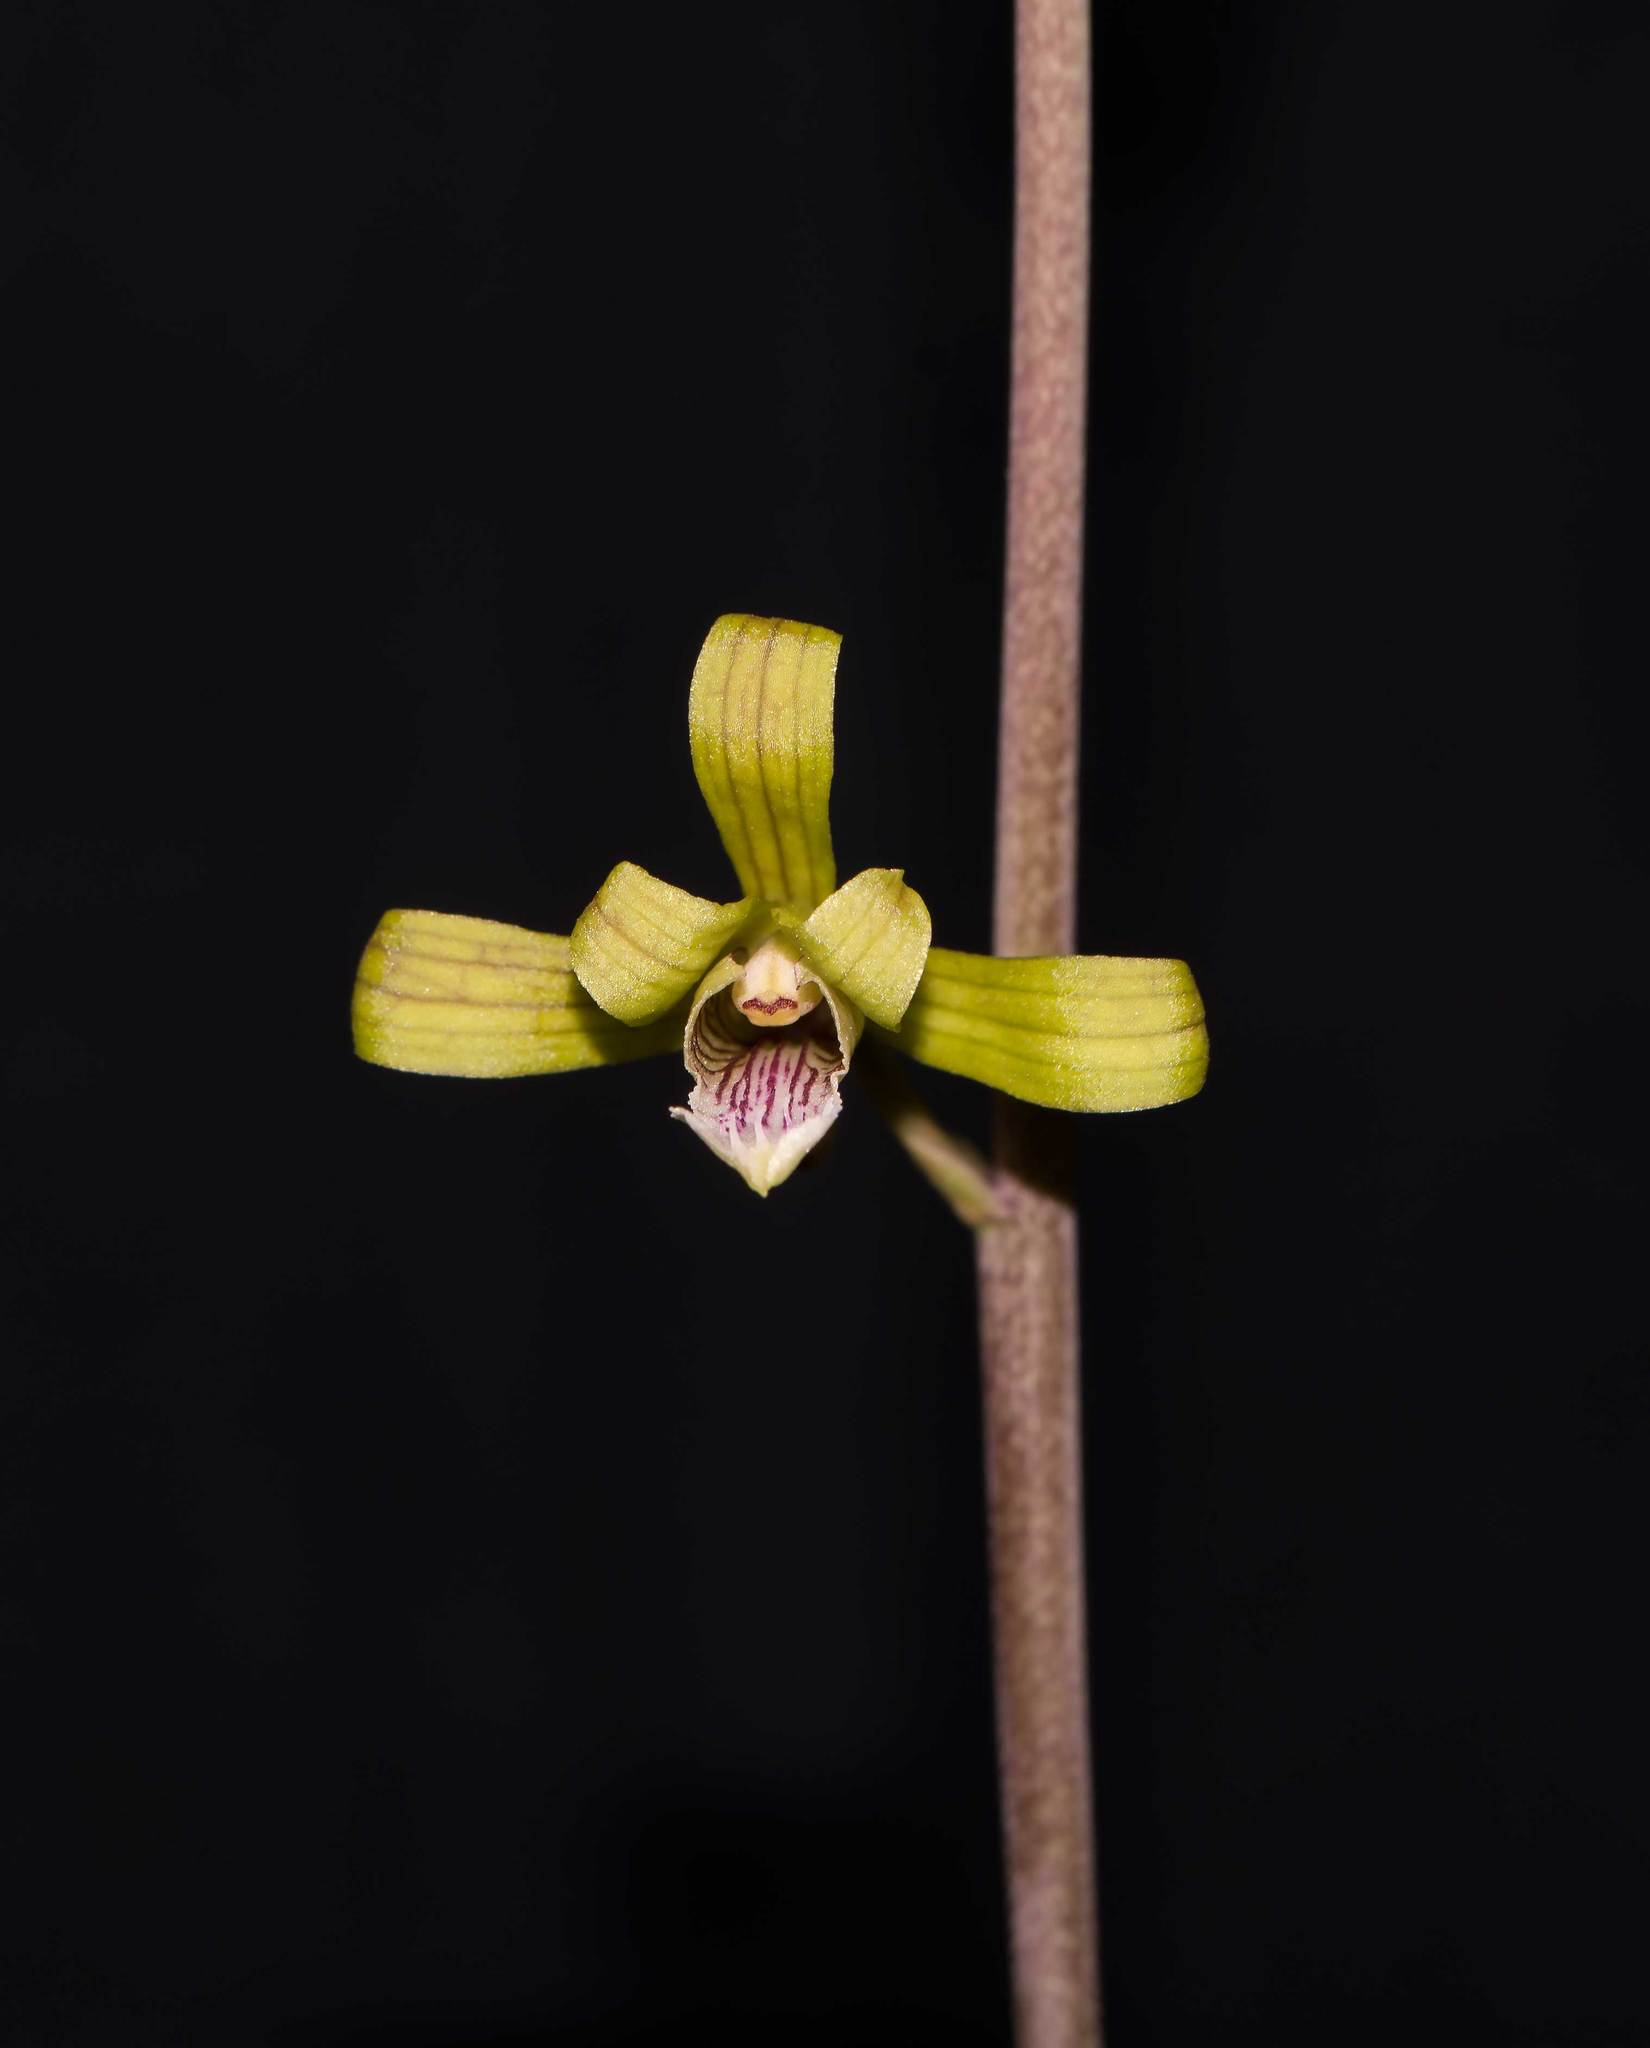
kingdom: Plantae
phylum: Tracheophyta
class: Liliopsida
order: Asparagales
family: Orchidaceae
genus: Eulophia
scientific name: Eulophia epidendraea
